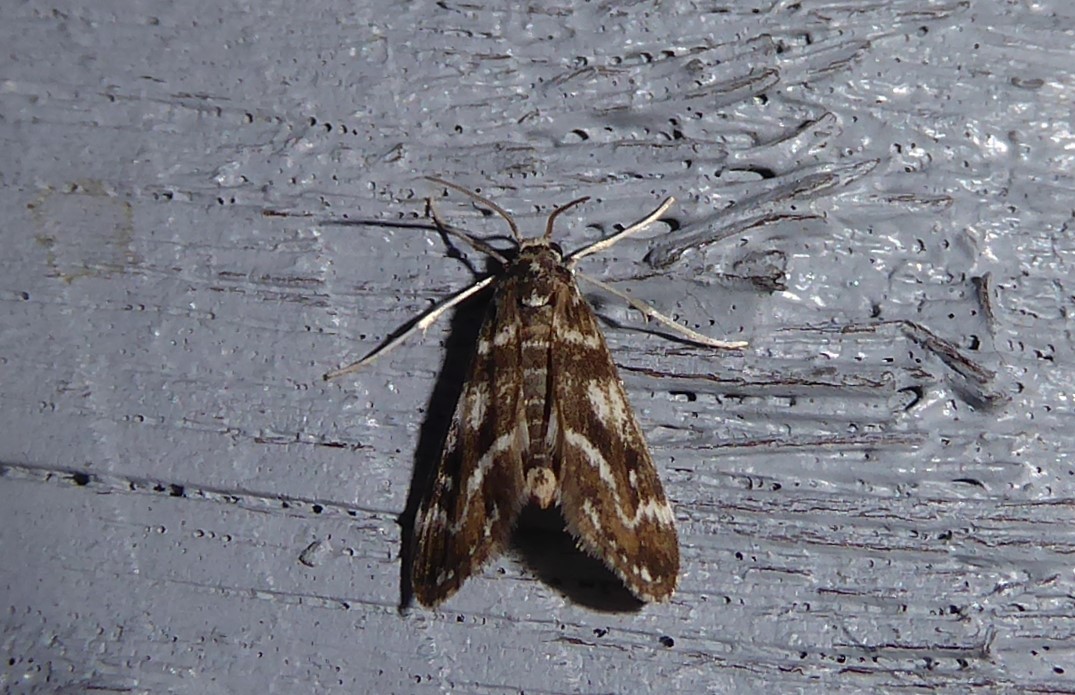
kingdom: Animalia
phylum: Arthropoda
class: Insecta
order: Lepidoptera
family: Crambidae
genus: Hygraula
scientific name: Hygraula nitens
